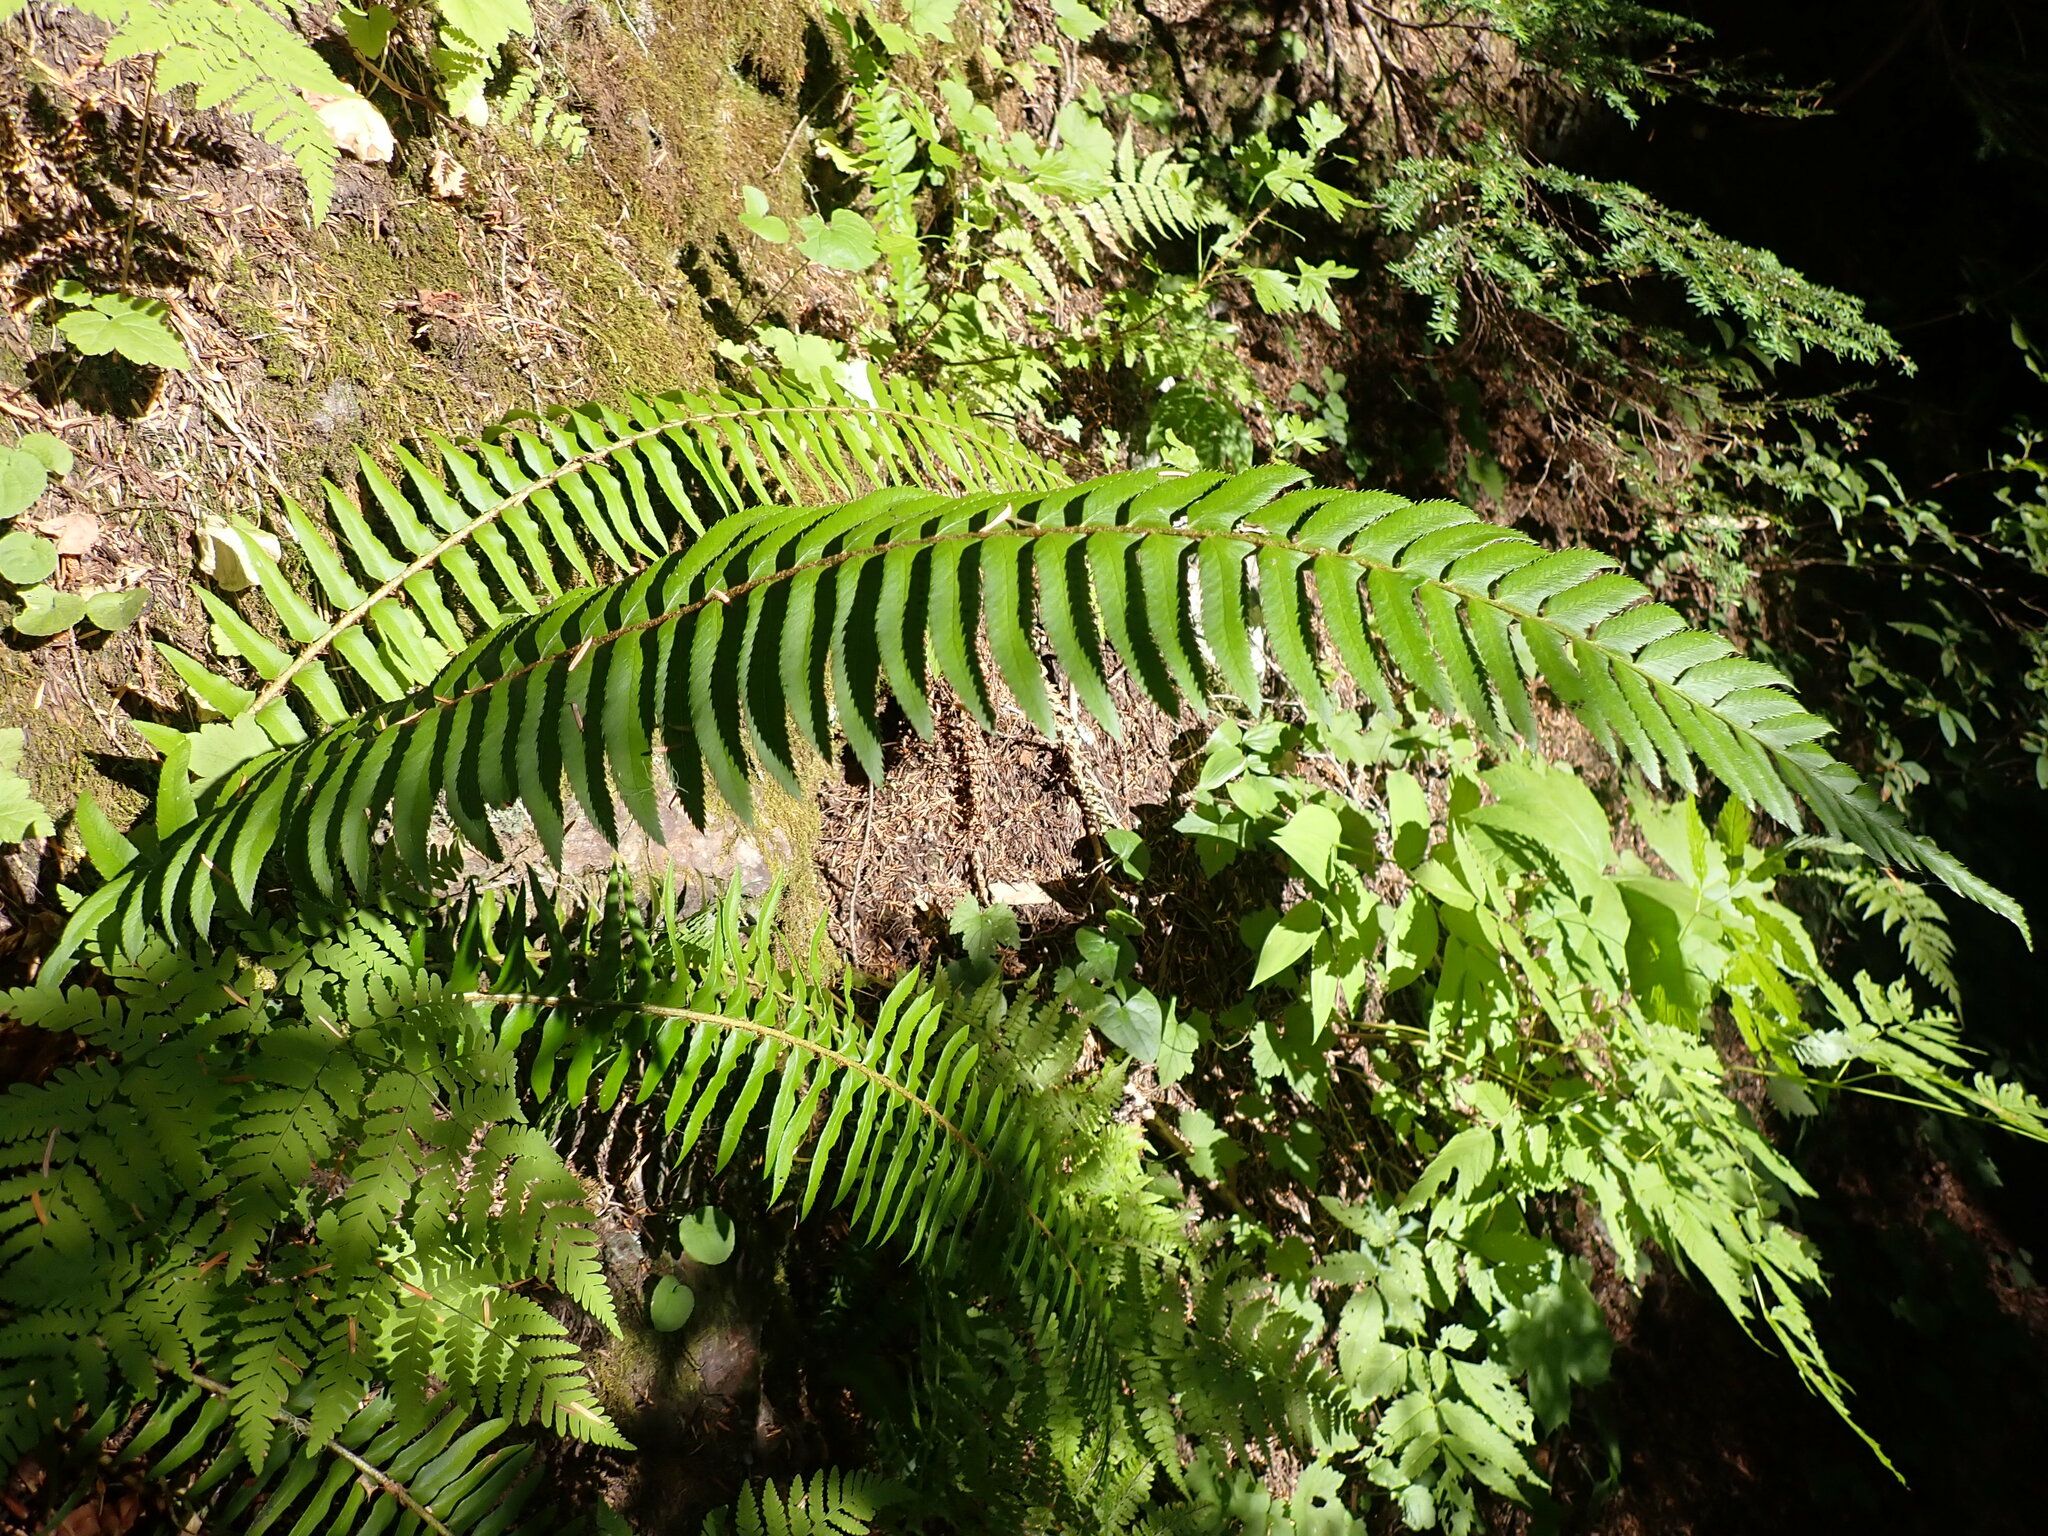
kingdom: Plantae
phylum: Tracheophyta
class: Polypodiopsida
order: Polypodiales
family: Dryopteridaceae
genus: Polystichum
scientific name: Polystichum munitum
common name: Western sword-fern
